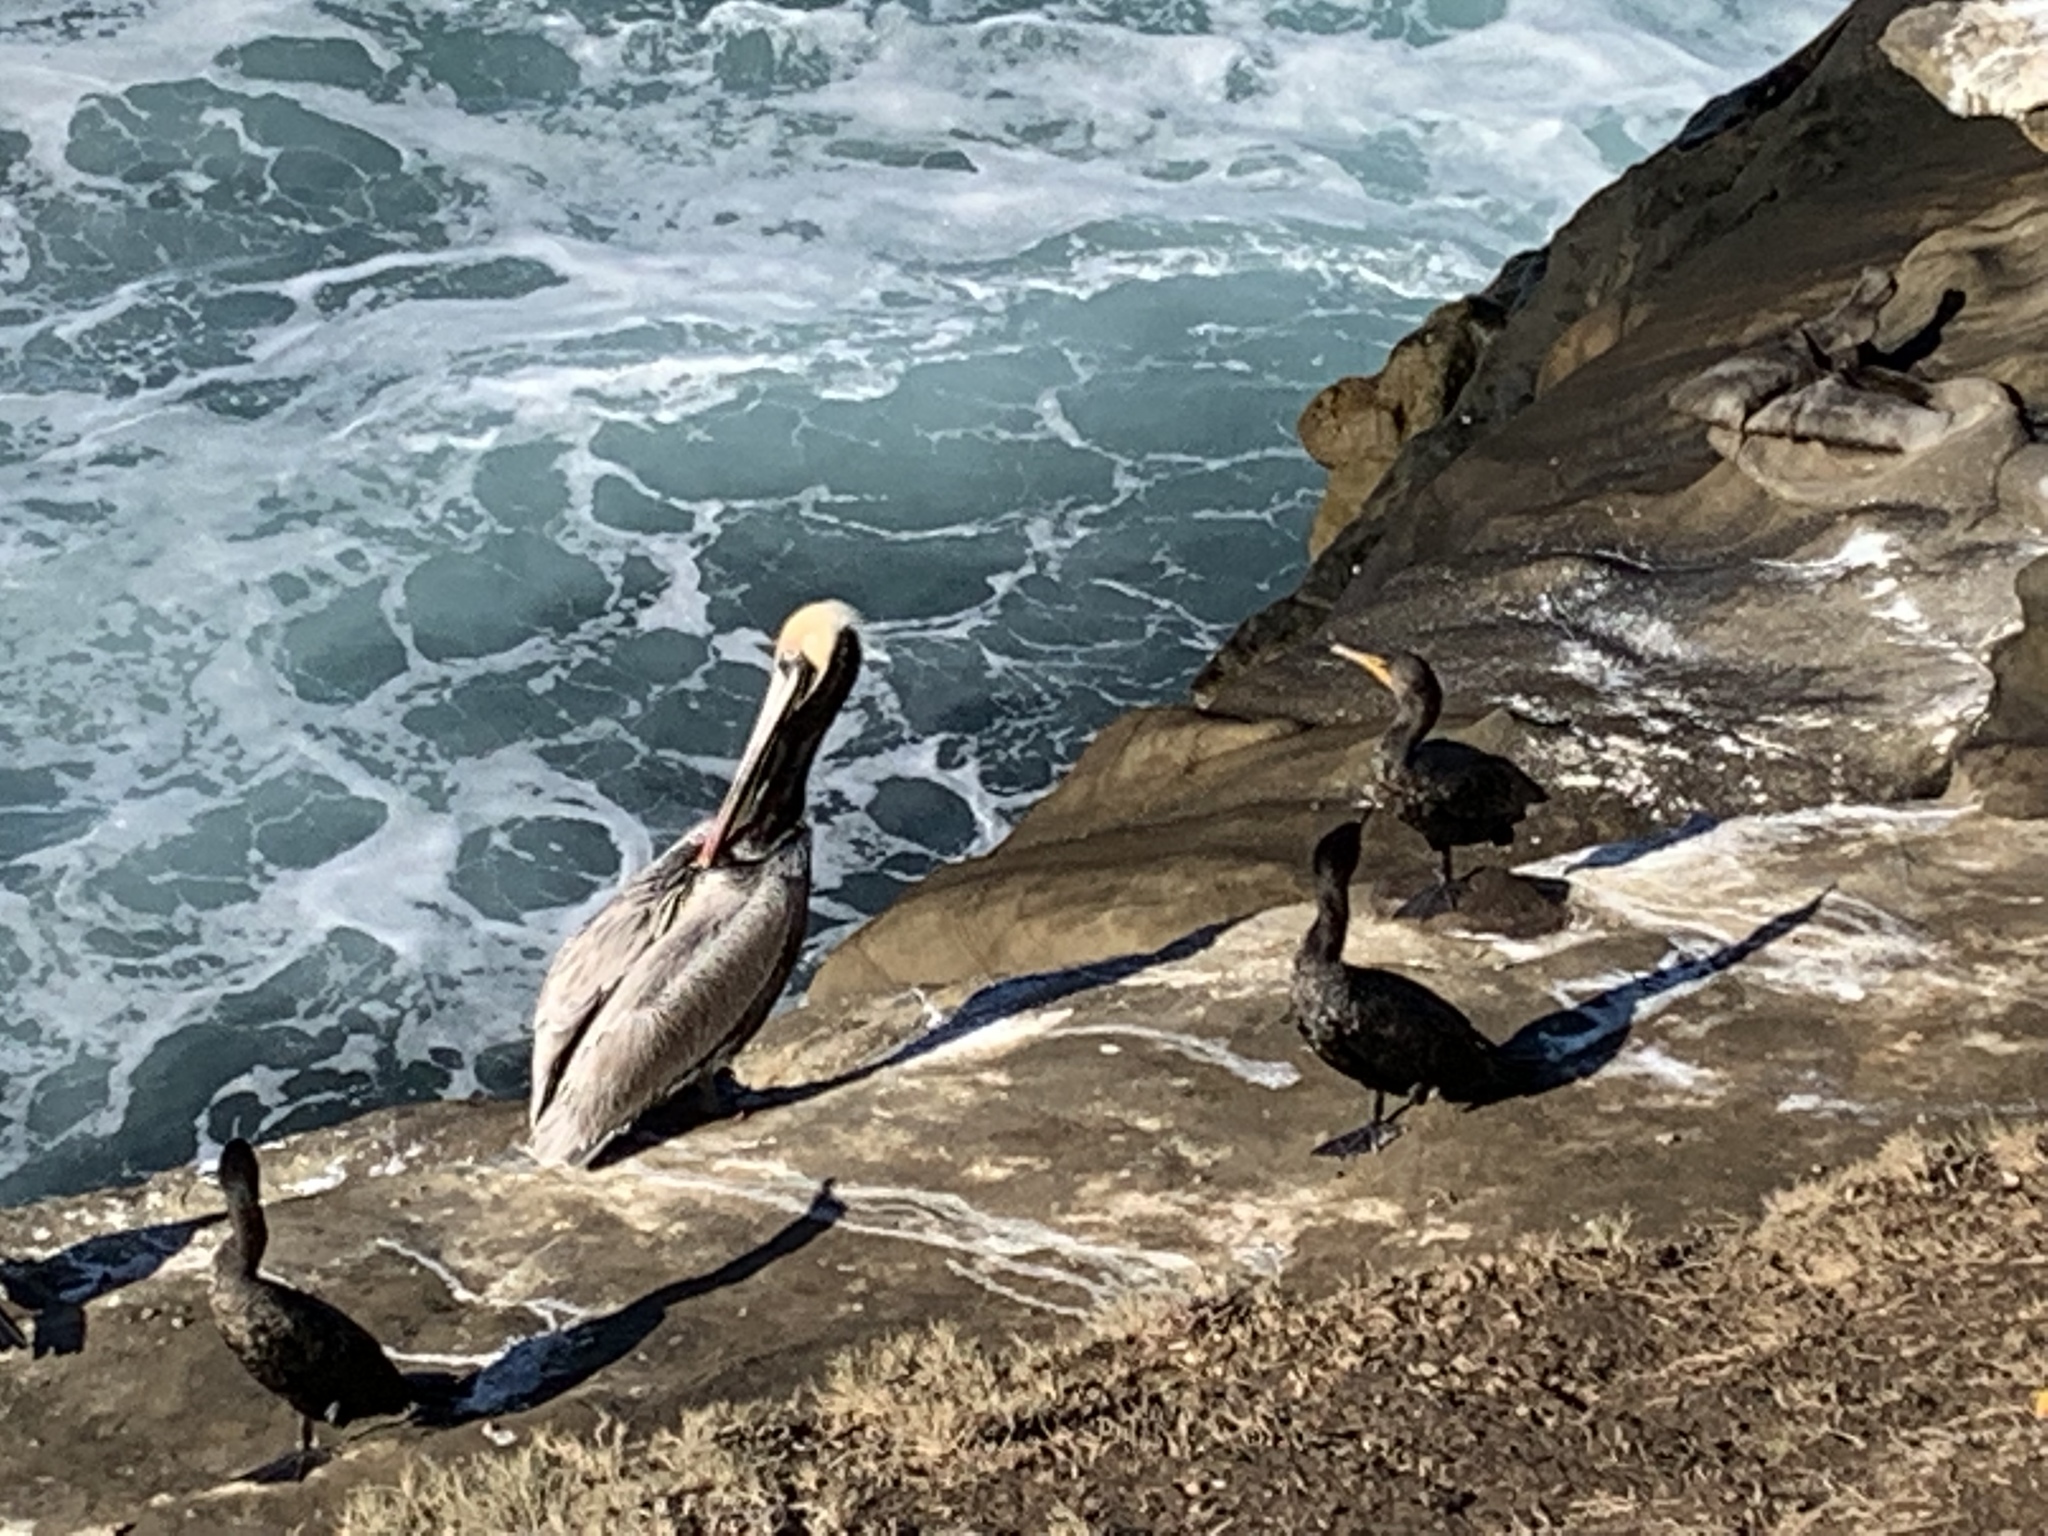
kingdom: Animalia
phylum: Chordata
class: Aves
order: Suliformes
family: Phalacrocoracidae
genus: Phalacrocorax
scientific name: Phalacrocorax auritus
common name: Double-crested cormorant
